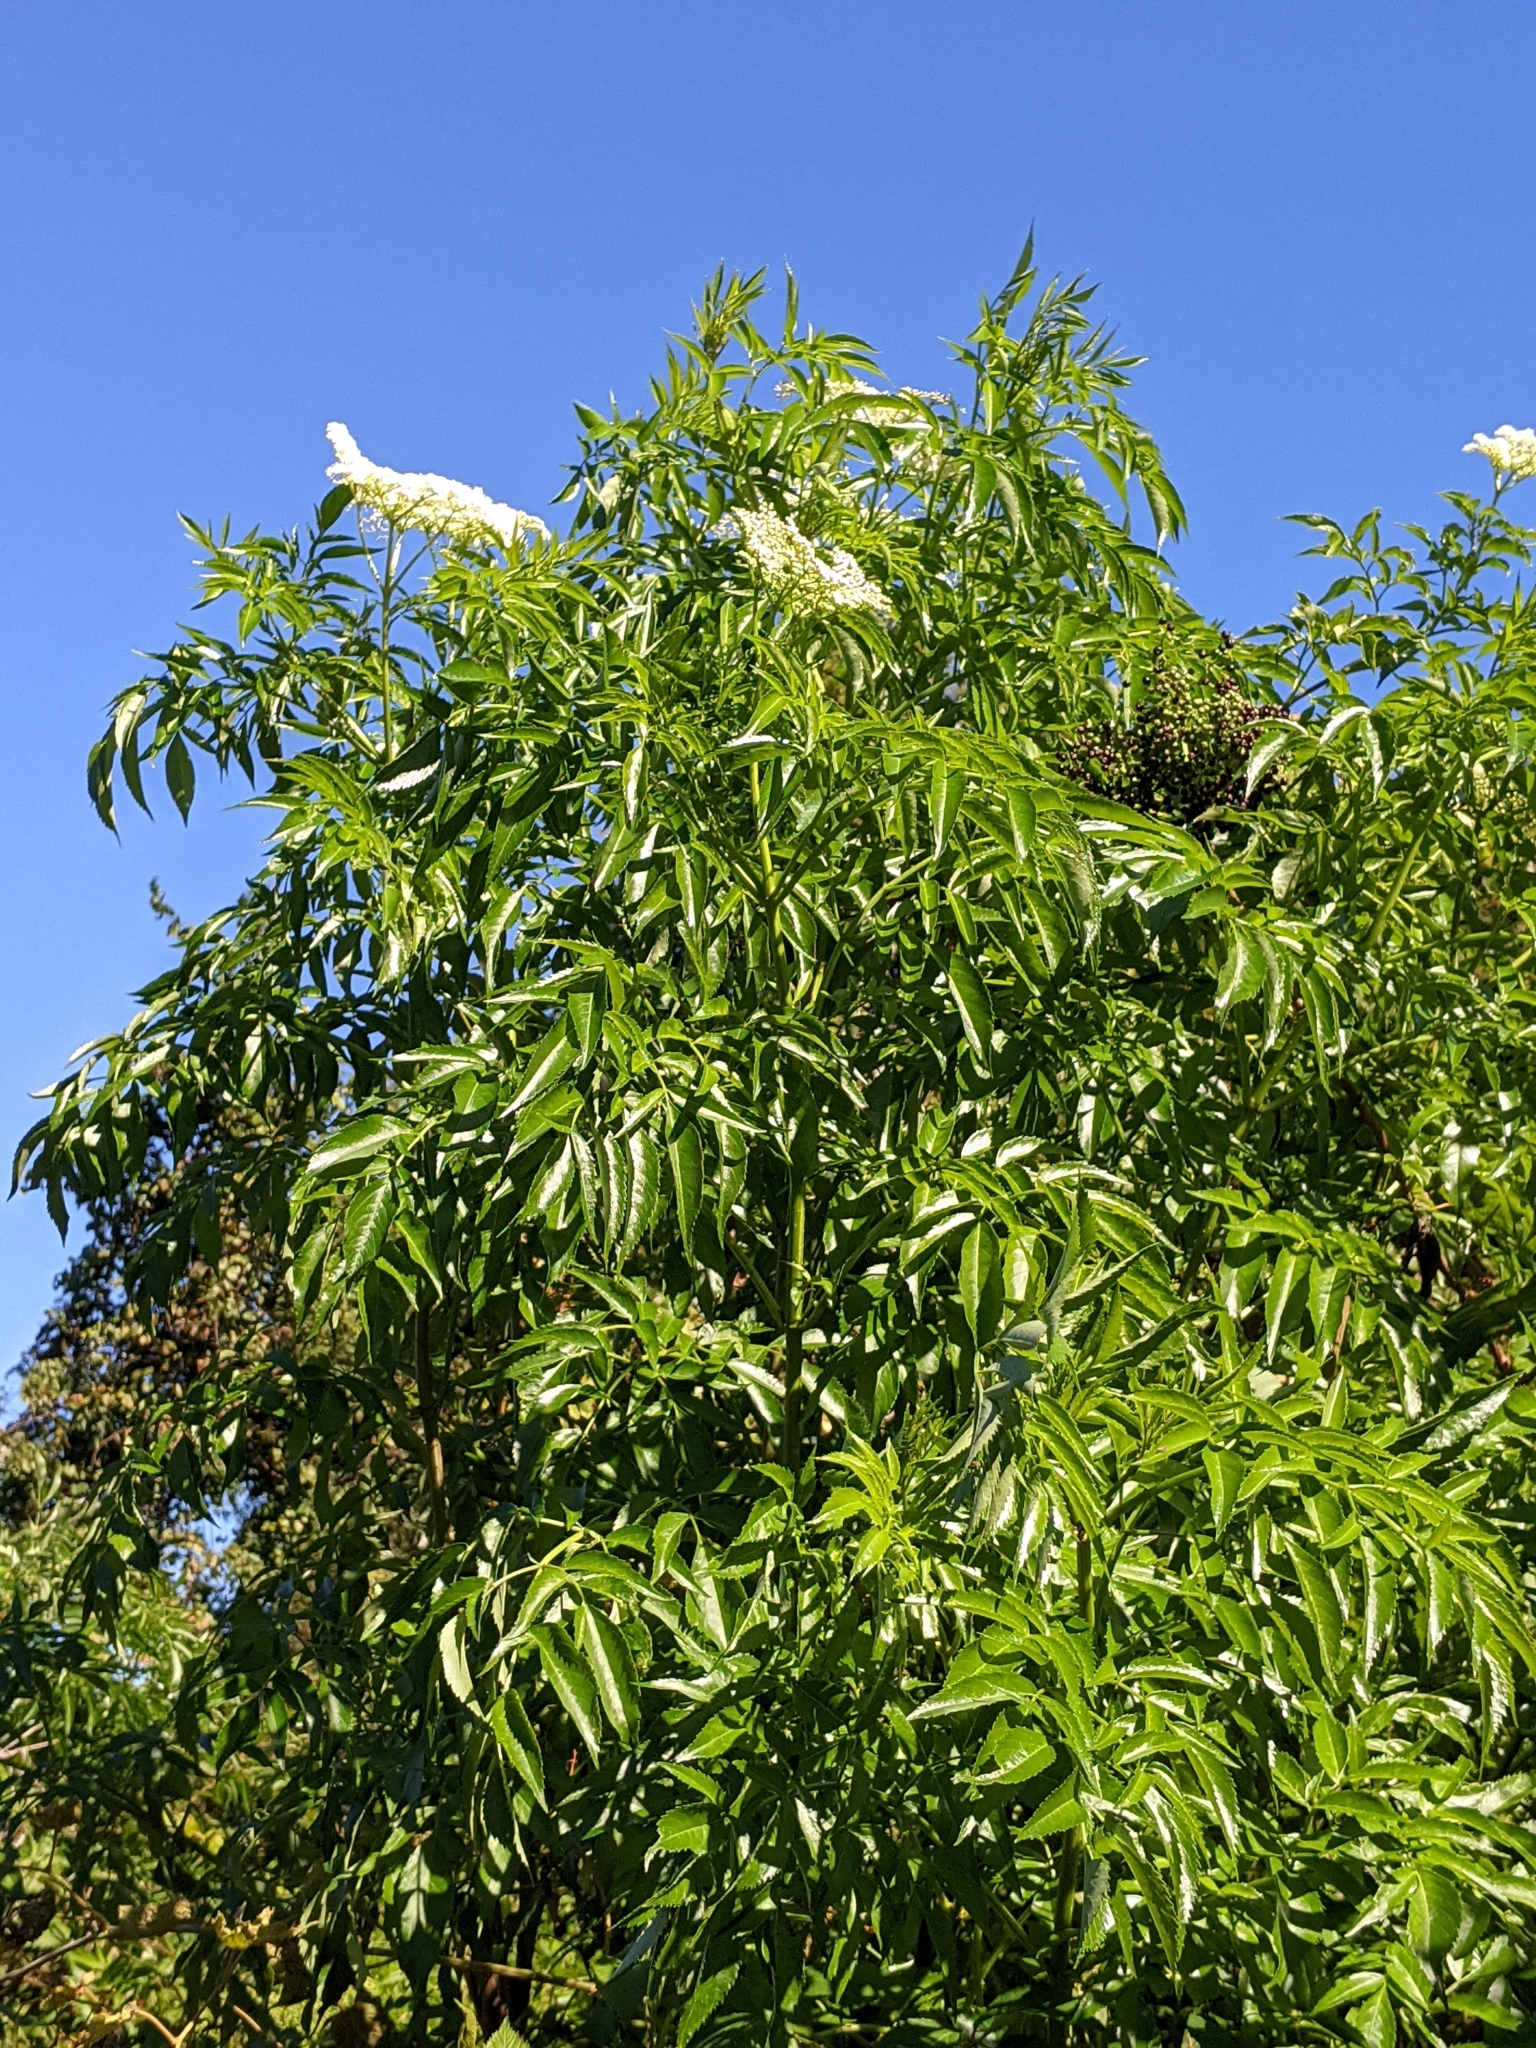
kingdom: Plantae
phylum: Tracheophyta
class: Magnoliopsida
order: Dipsacales
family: Viburnaceae
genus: Sambucus
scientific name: Sambucus canadensis
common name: American elder
